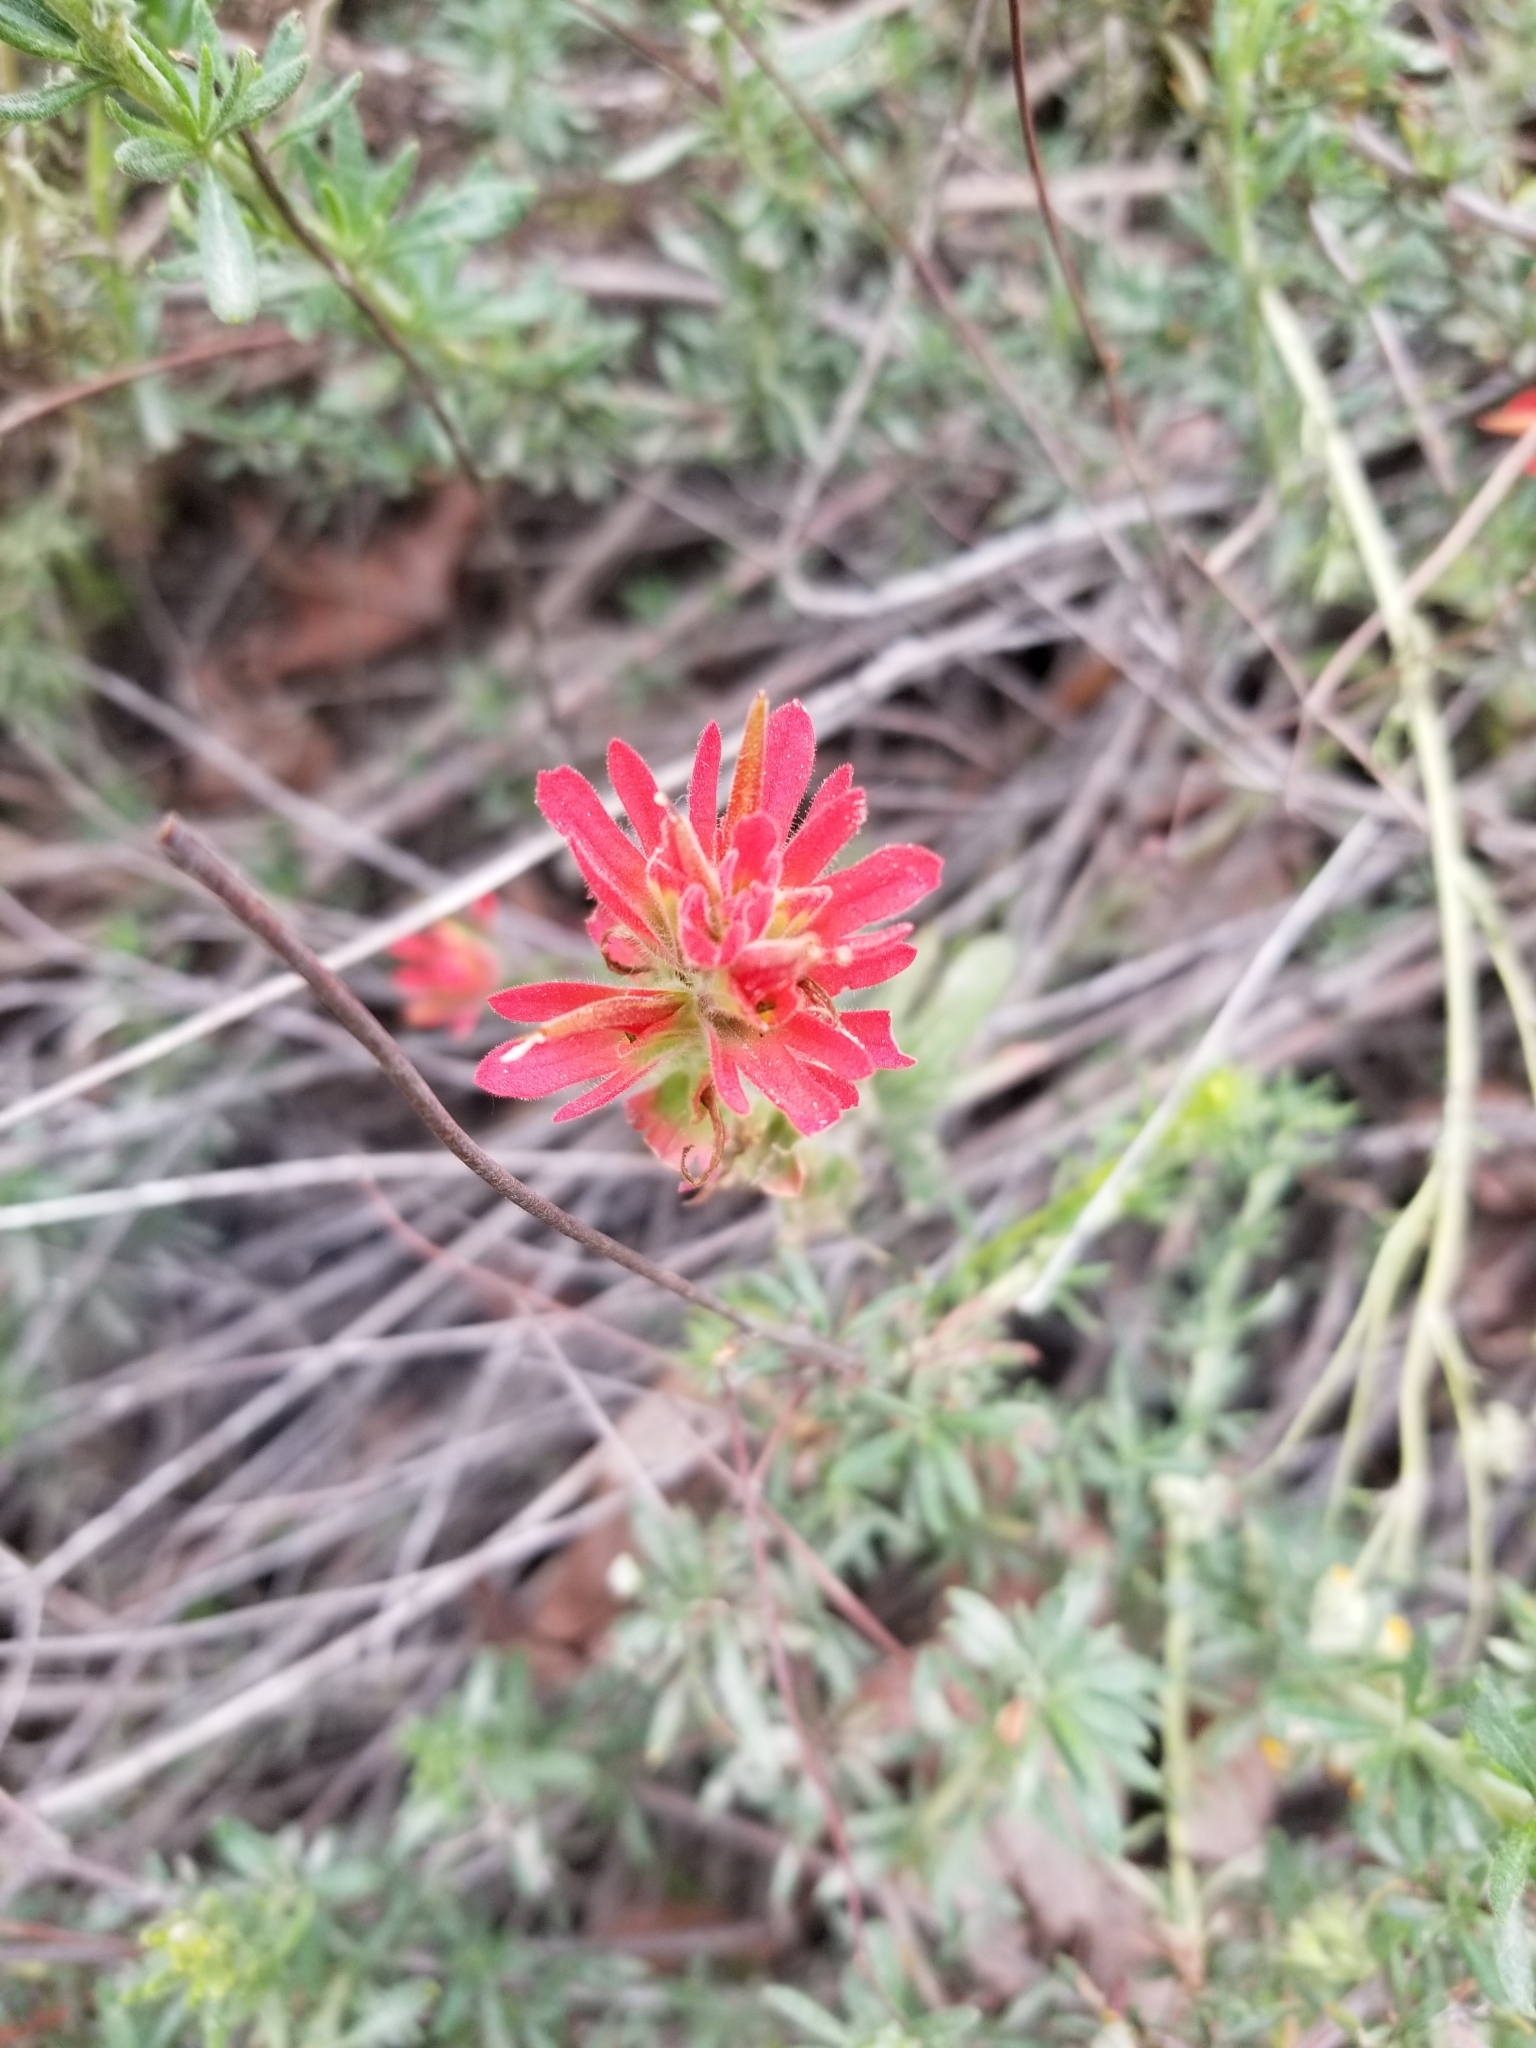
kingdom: Plantae
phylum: Tracheophyta
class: Magnoliopsida
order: Lamiales
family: Orobanchaceae
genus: Castilleja
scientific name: Castilleja martini
